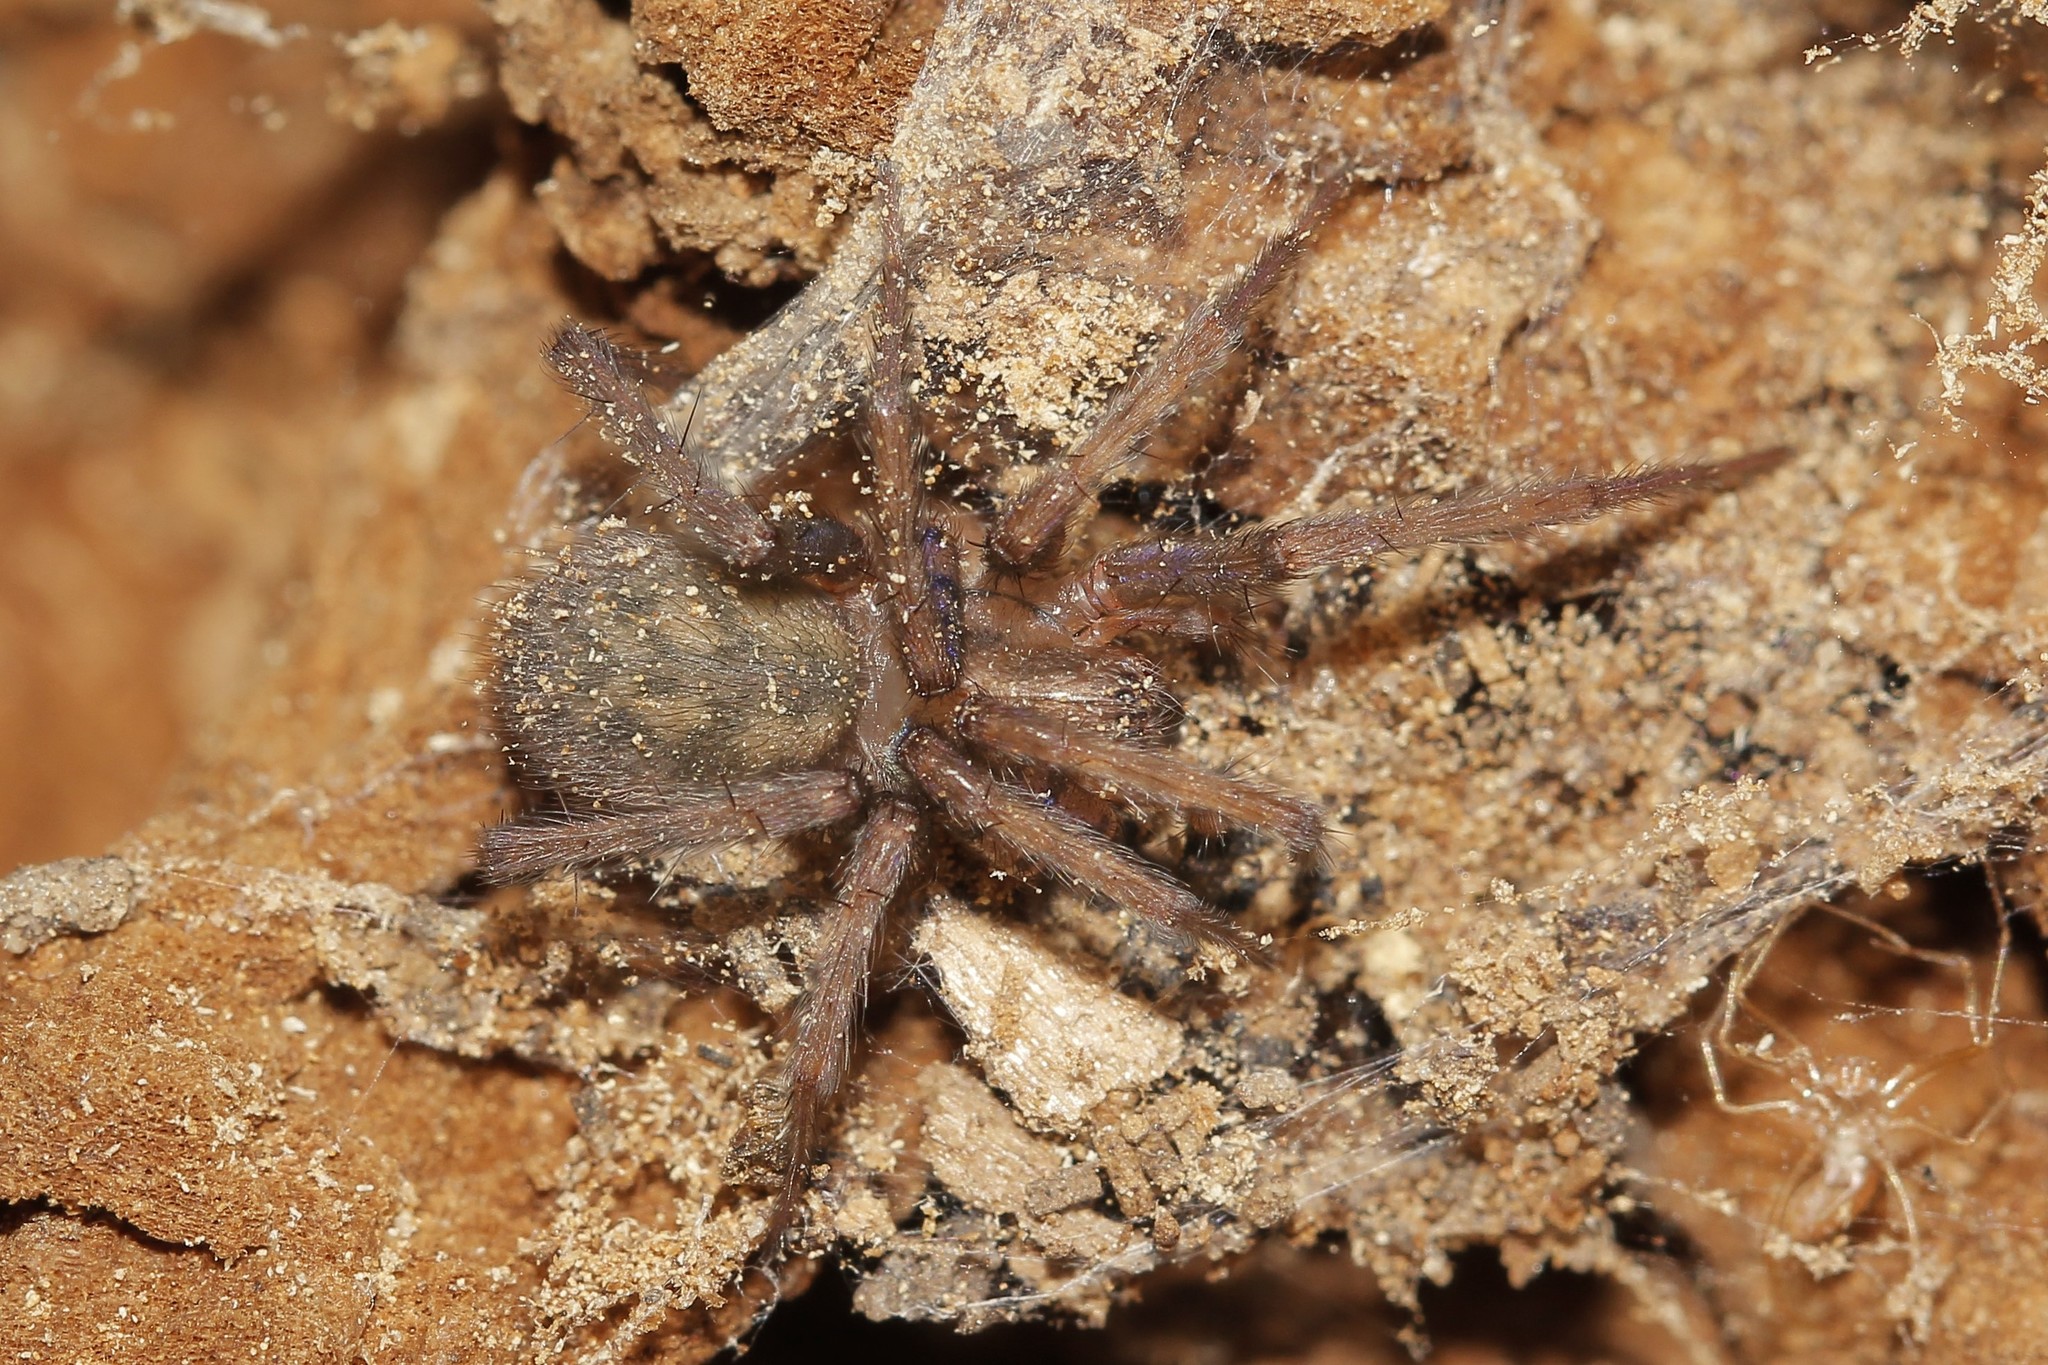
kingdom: Animalia
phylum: Arthropoda
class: Arachnida
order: Araneae
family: Agelenidae
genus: Tegenaria
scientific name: Tegenaria domestica
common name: Barn funnel weaver
